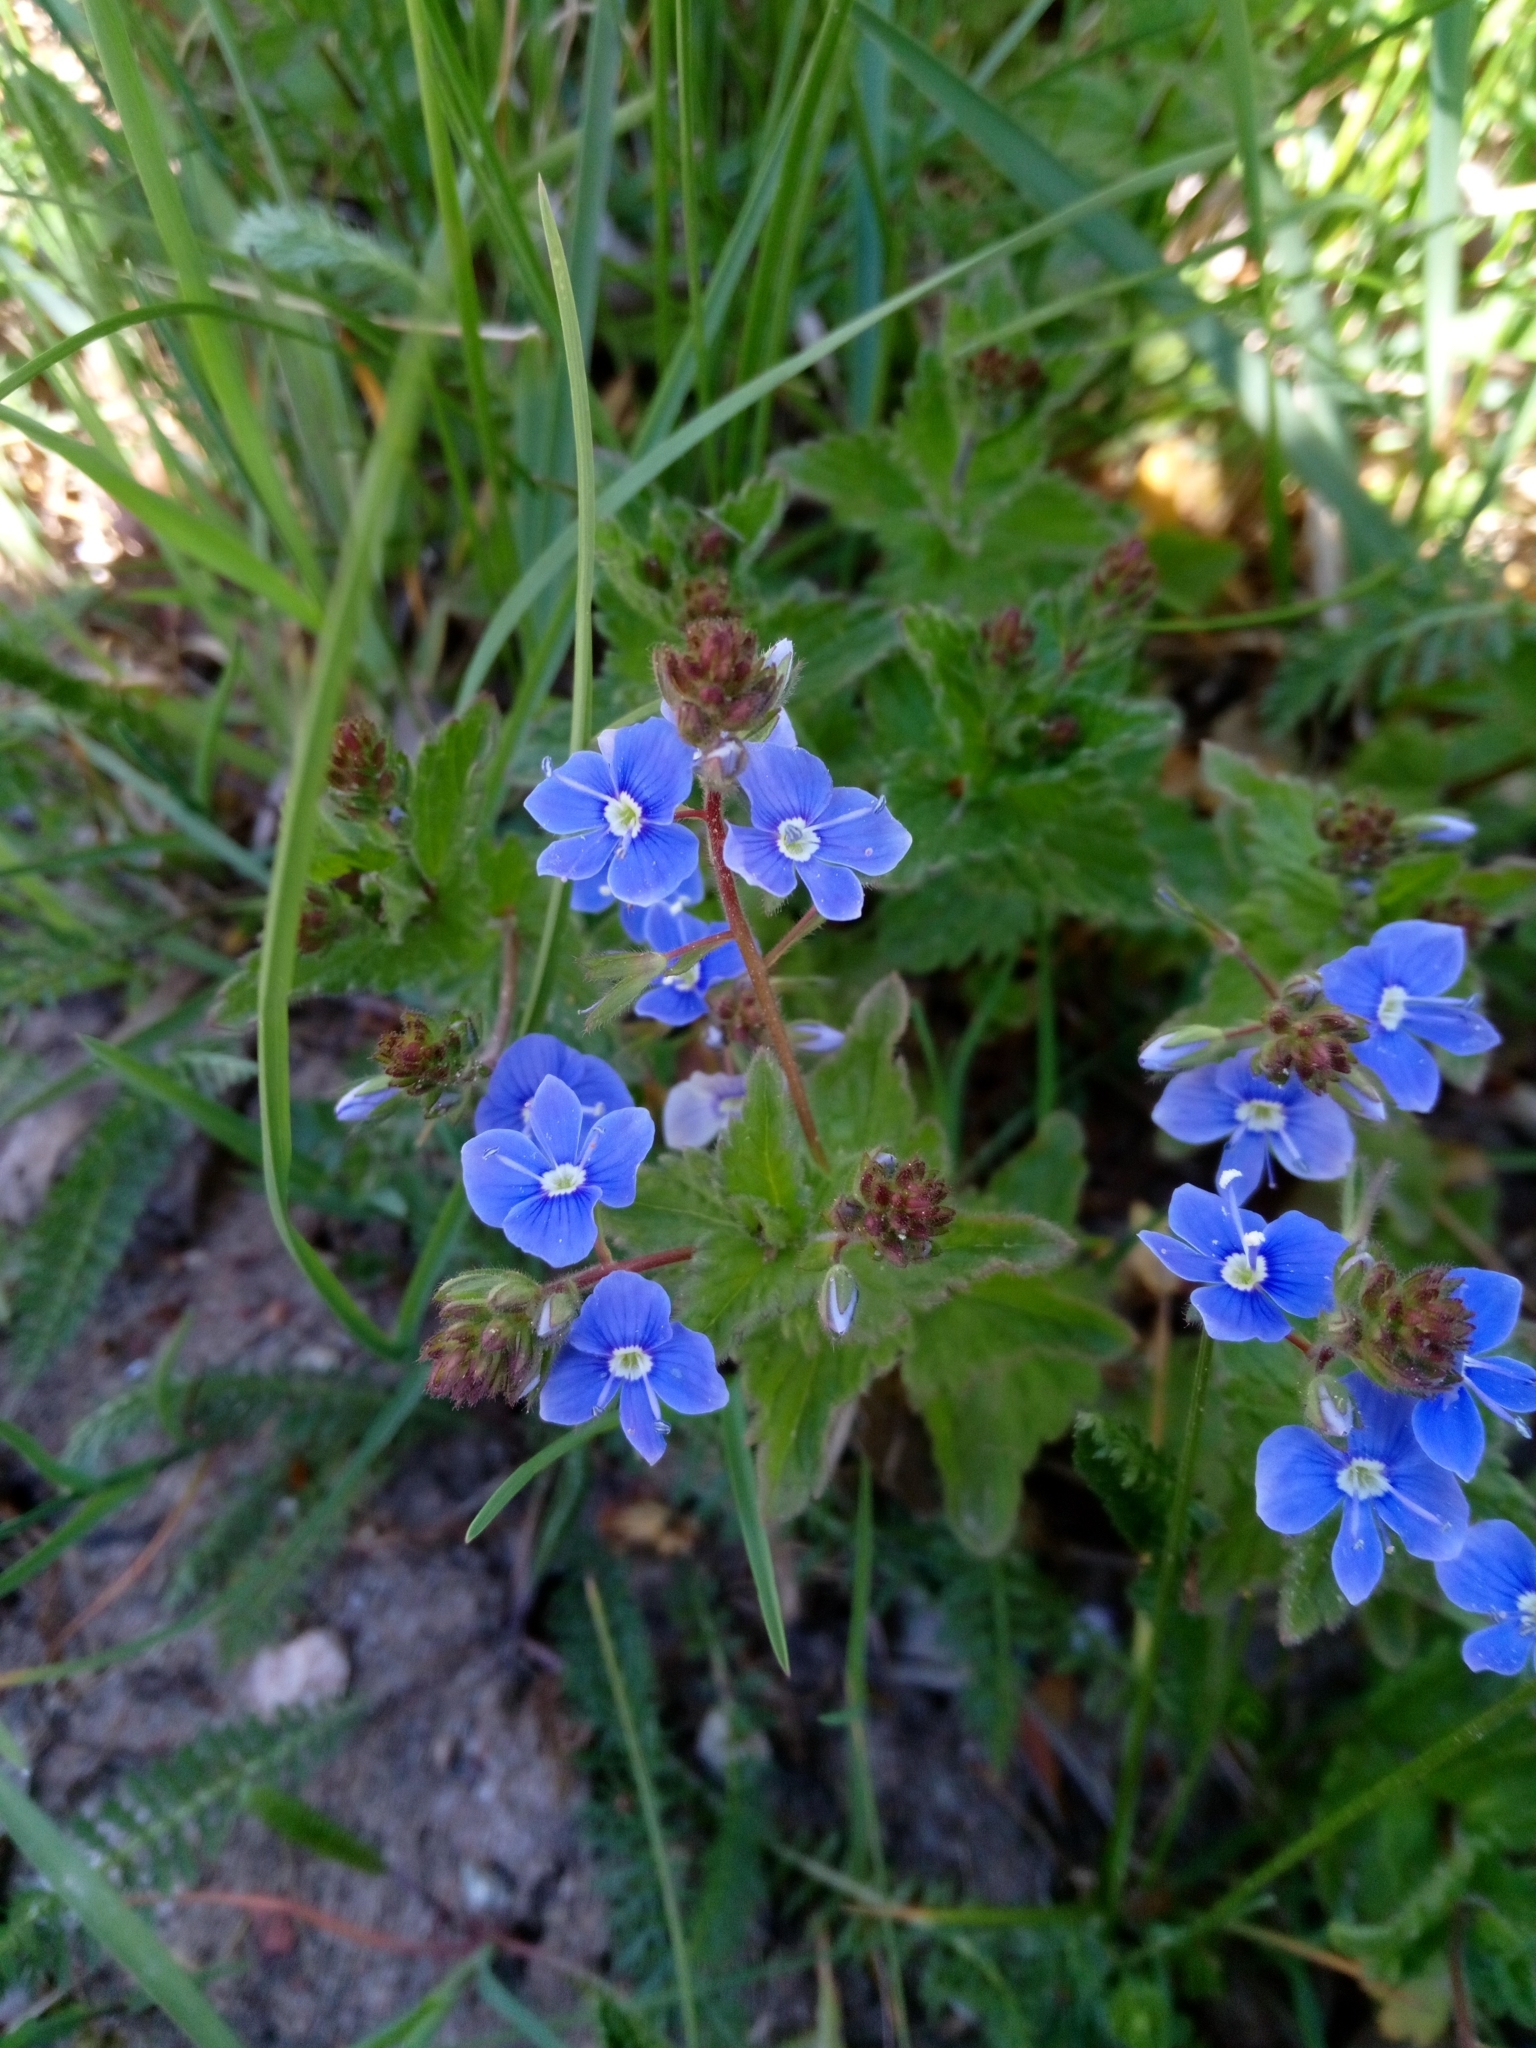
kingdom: Plantae
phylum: Tracheophyta
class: Magnoliopsida
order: Lamiales
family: Plantaginaceae
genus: Veronica
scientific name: Veronica chamaedrys
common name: Germander speedwell
